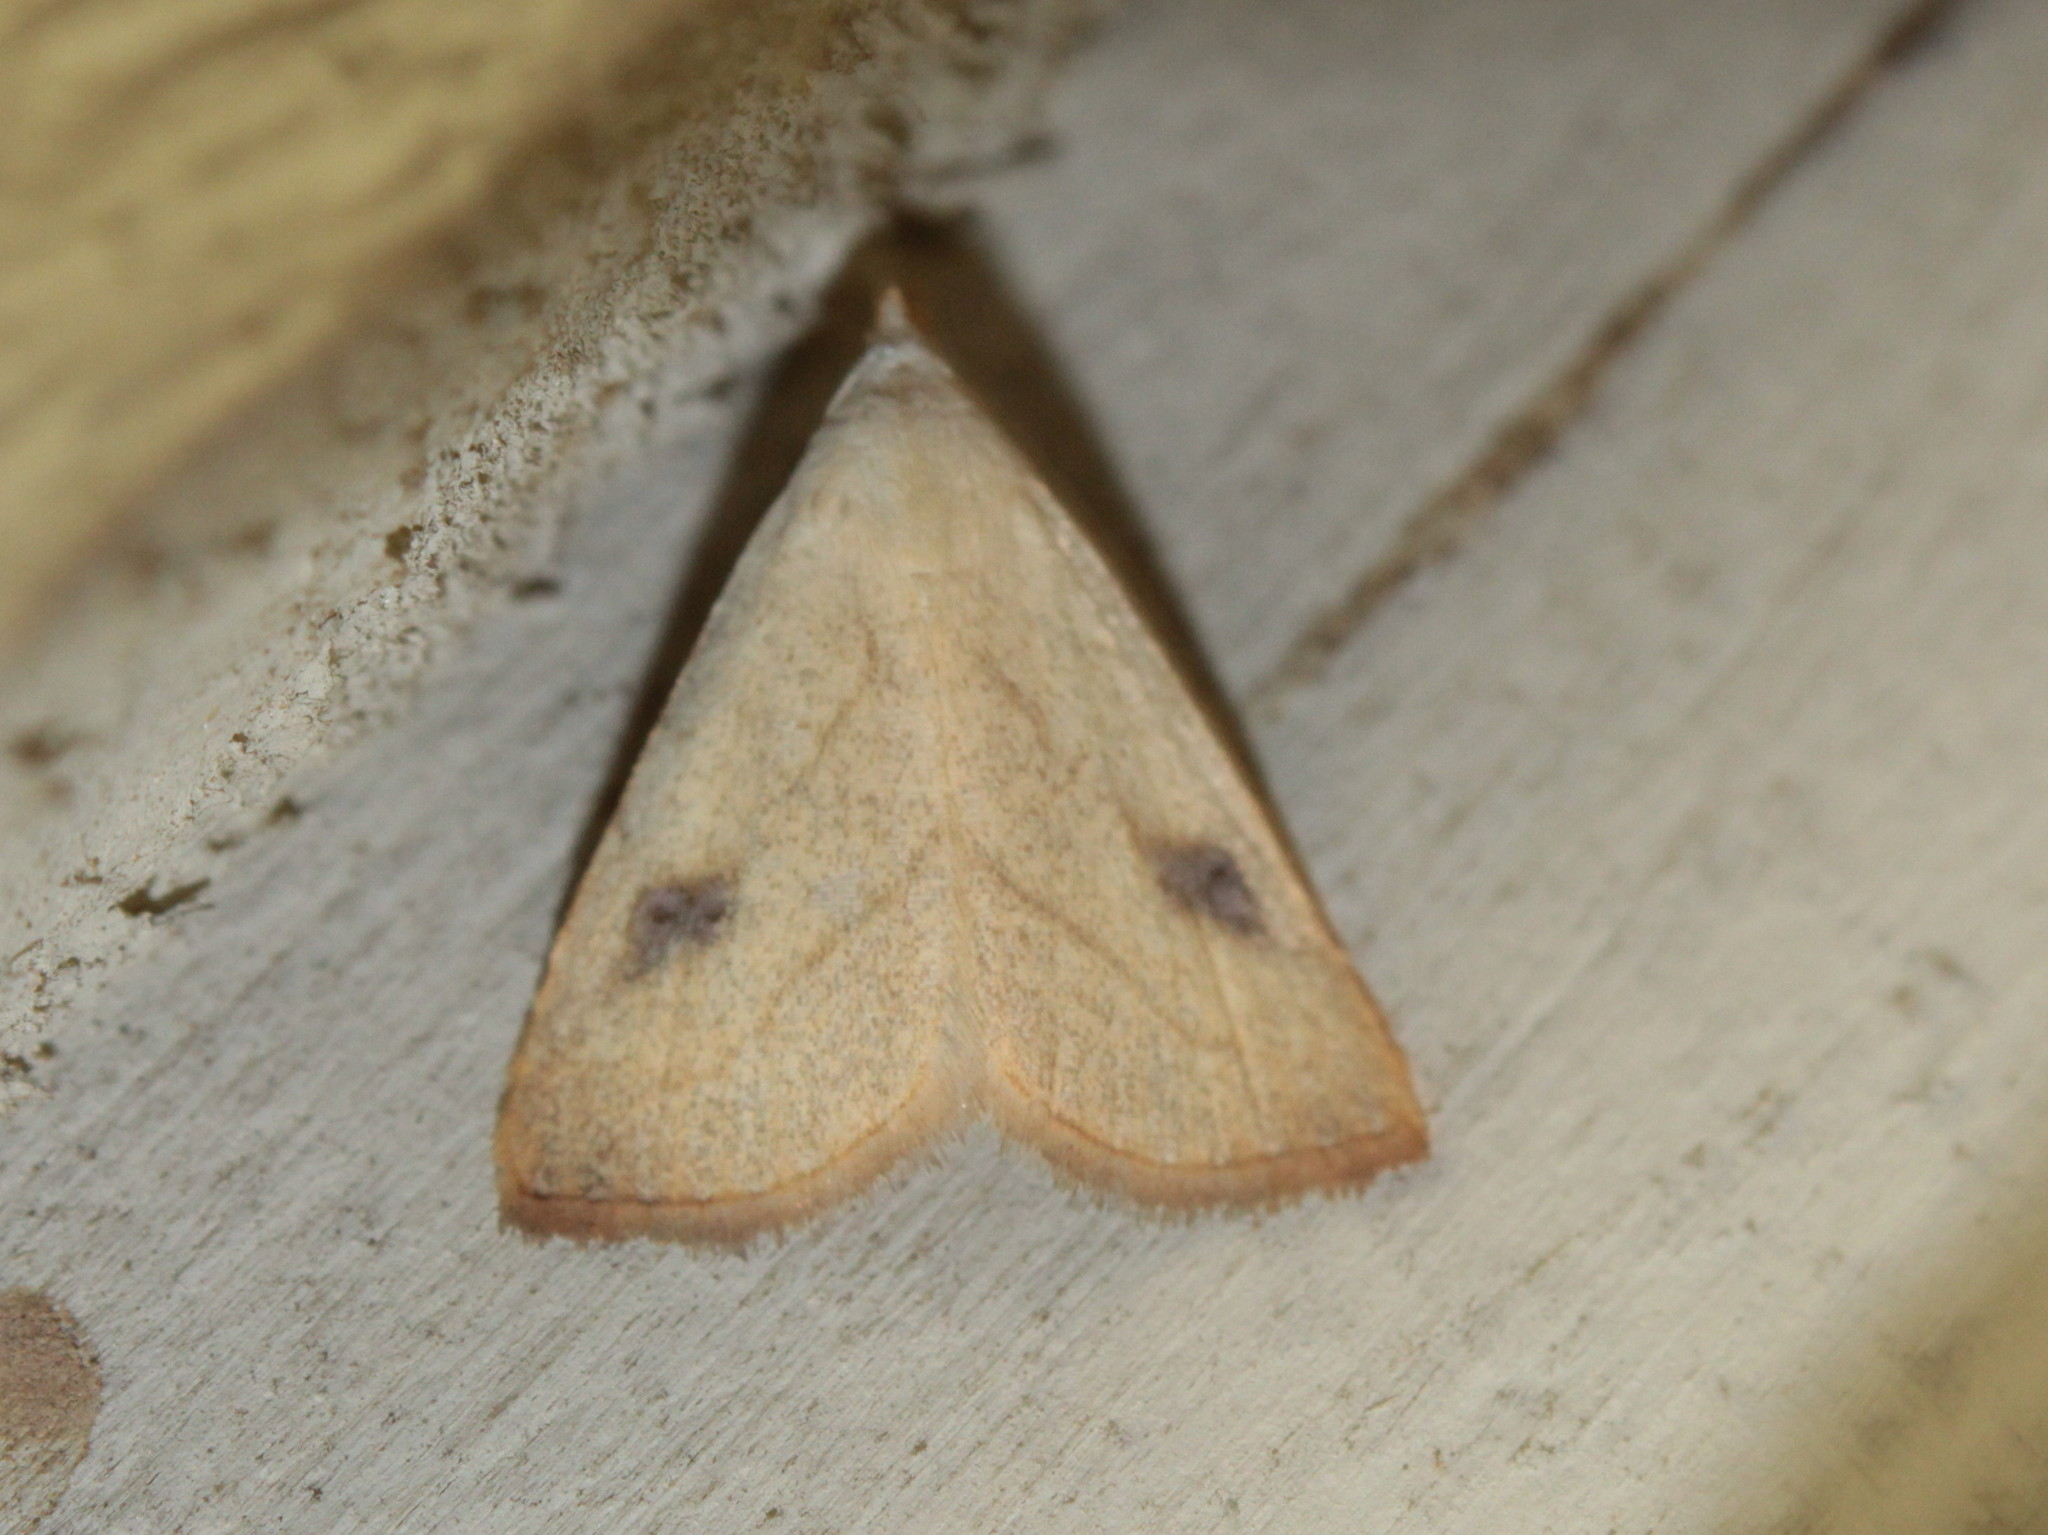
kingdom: Animalia
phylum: Arthropoda
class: Insecta
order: Lepidoptera
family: Erebidae
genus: Rivula
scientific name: Rivula propinqualis
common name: Spotted grass moth
